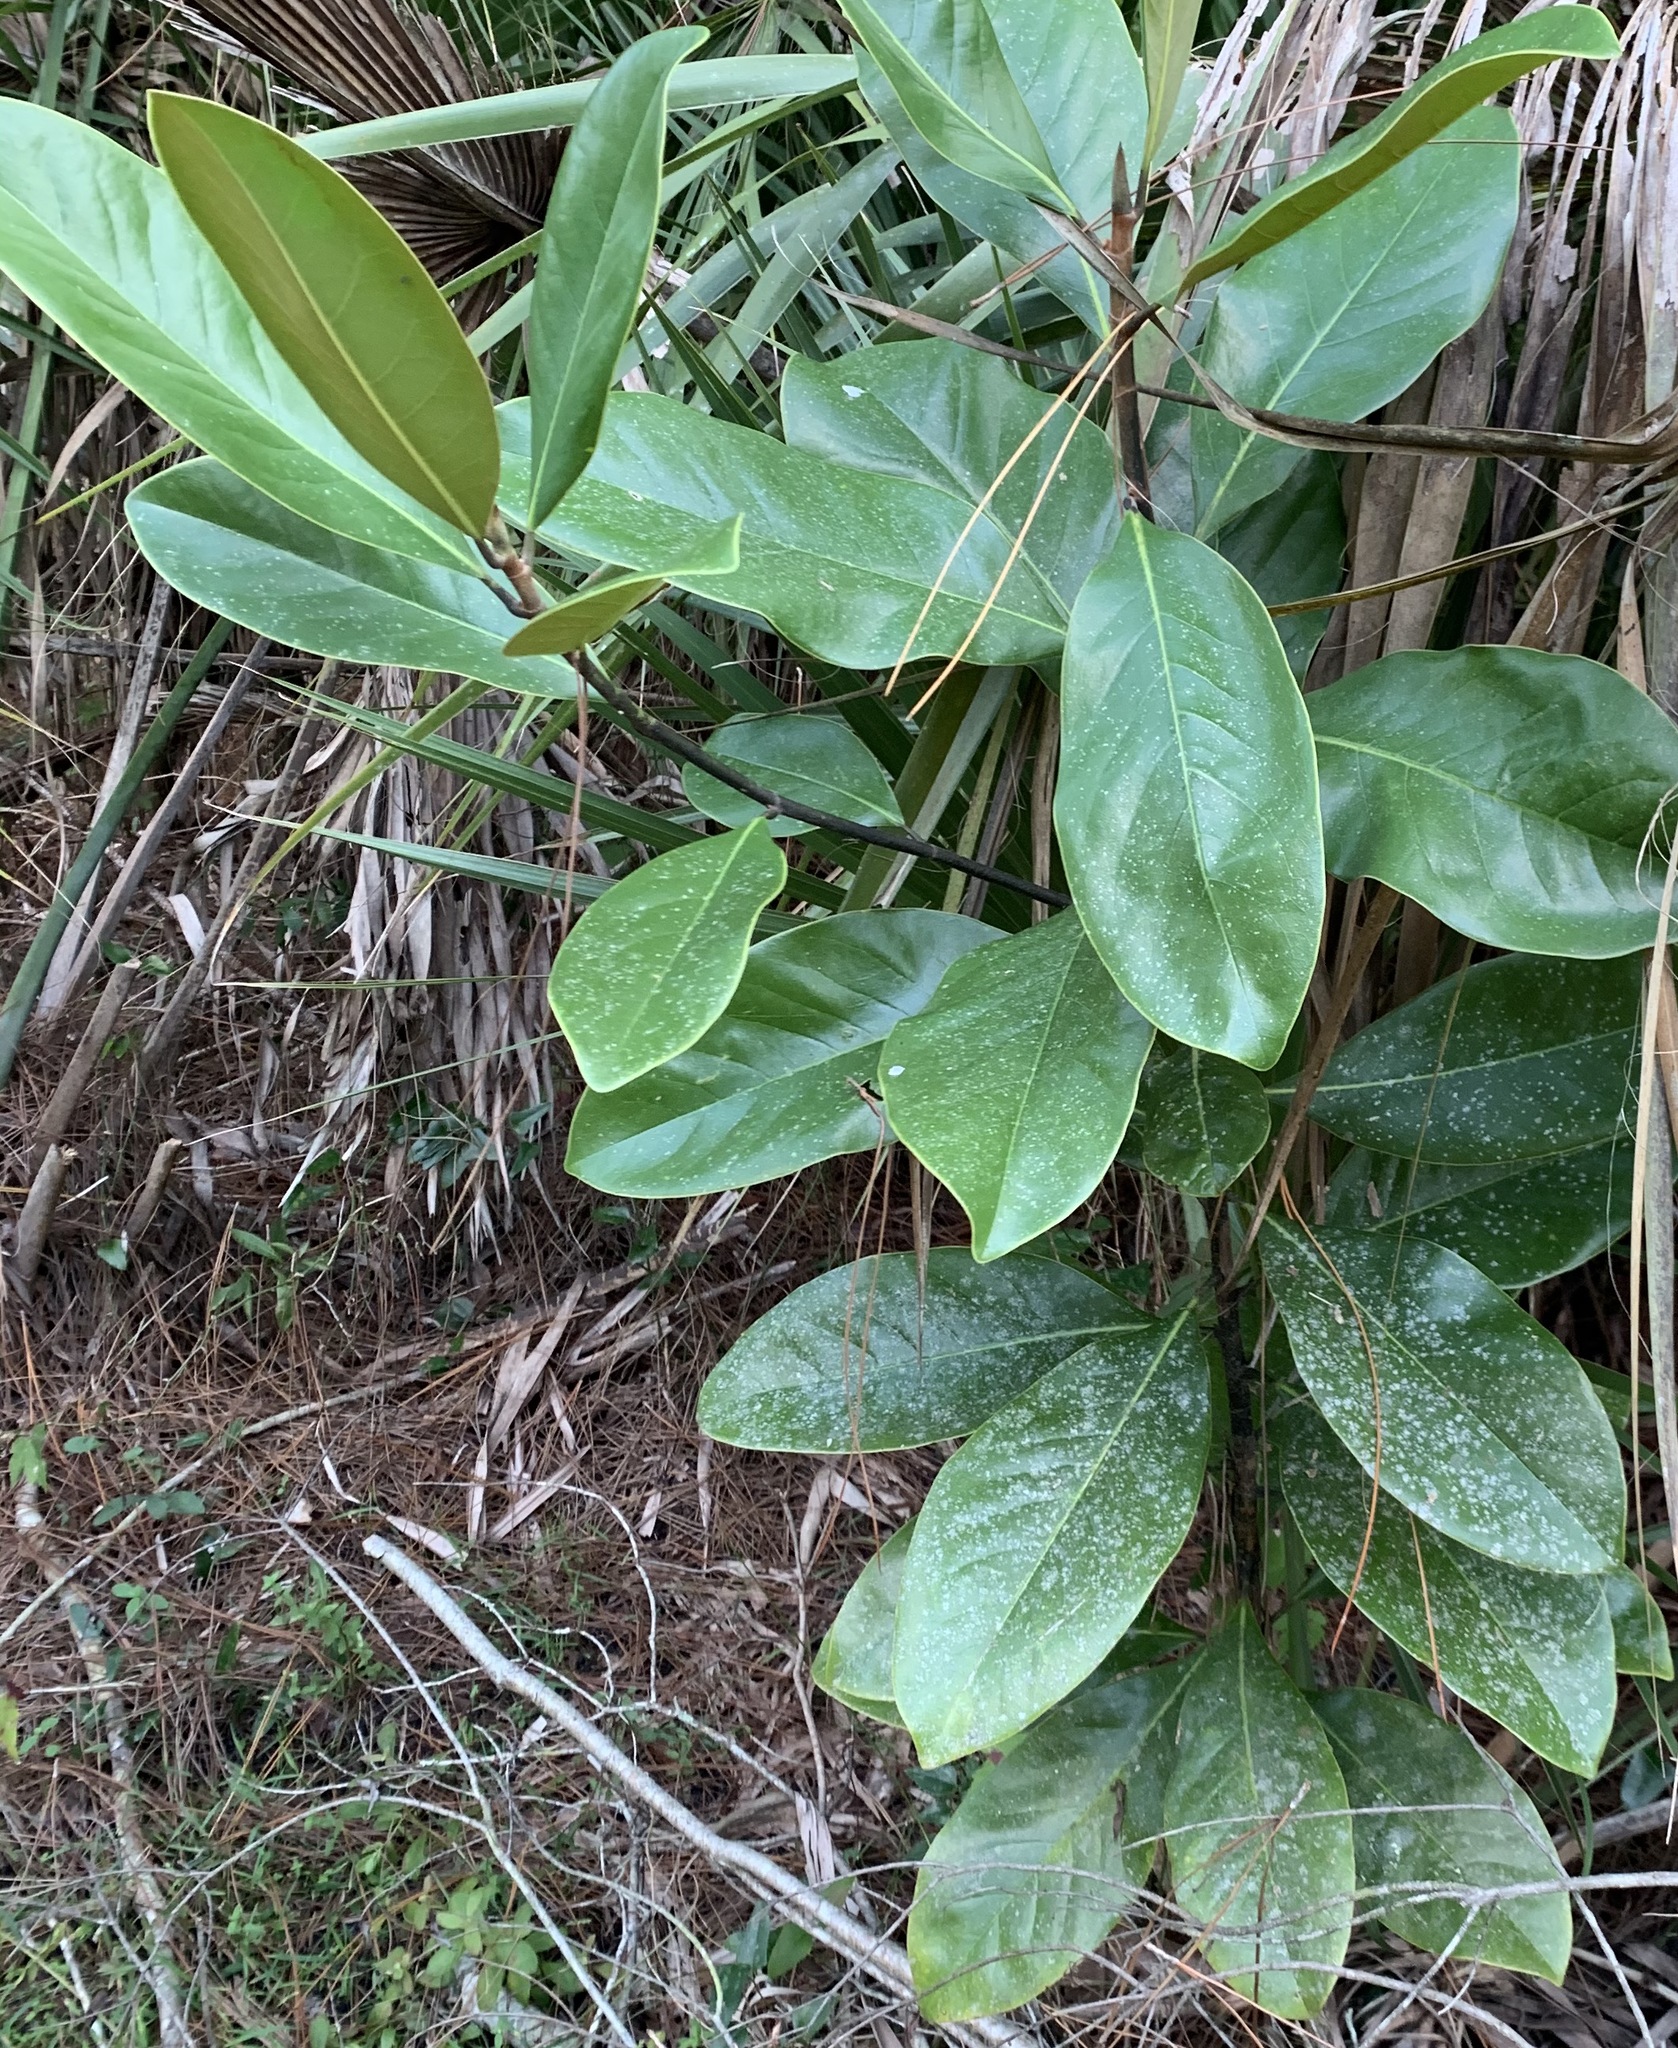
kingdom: Plantae
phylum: Tracheophyta
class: Magnoliopsida
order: Magnoliales
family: Magnoliaceae
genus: Magnolia
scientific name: Magnolia grandiflora
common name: Southern magnolia
